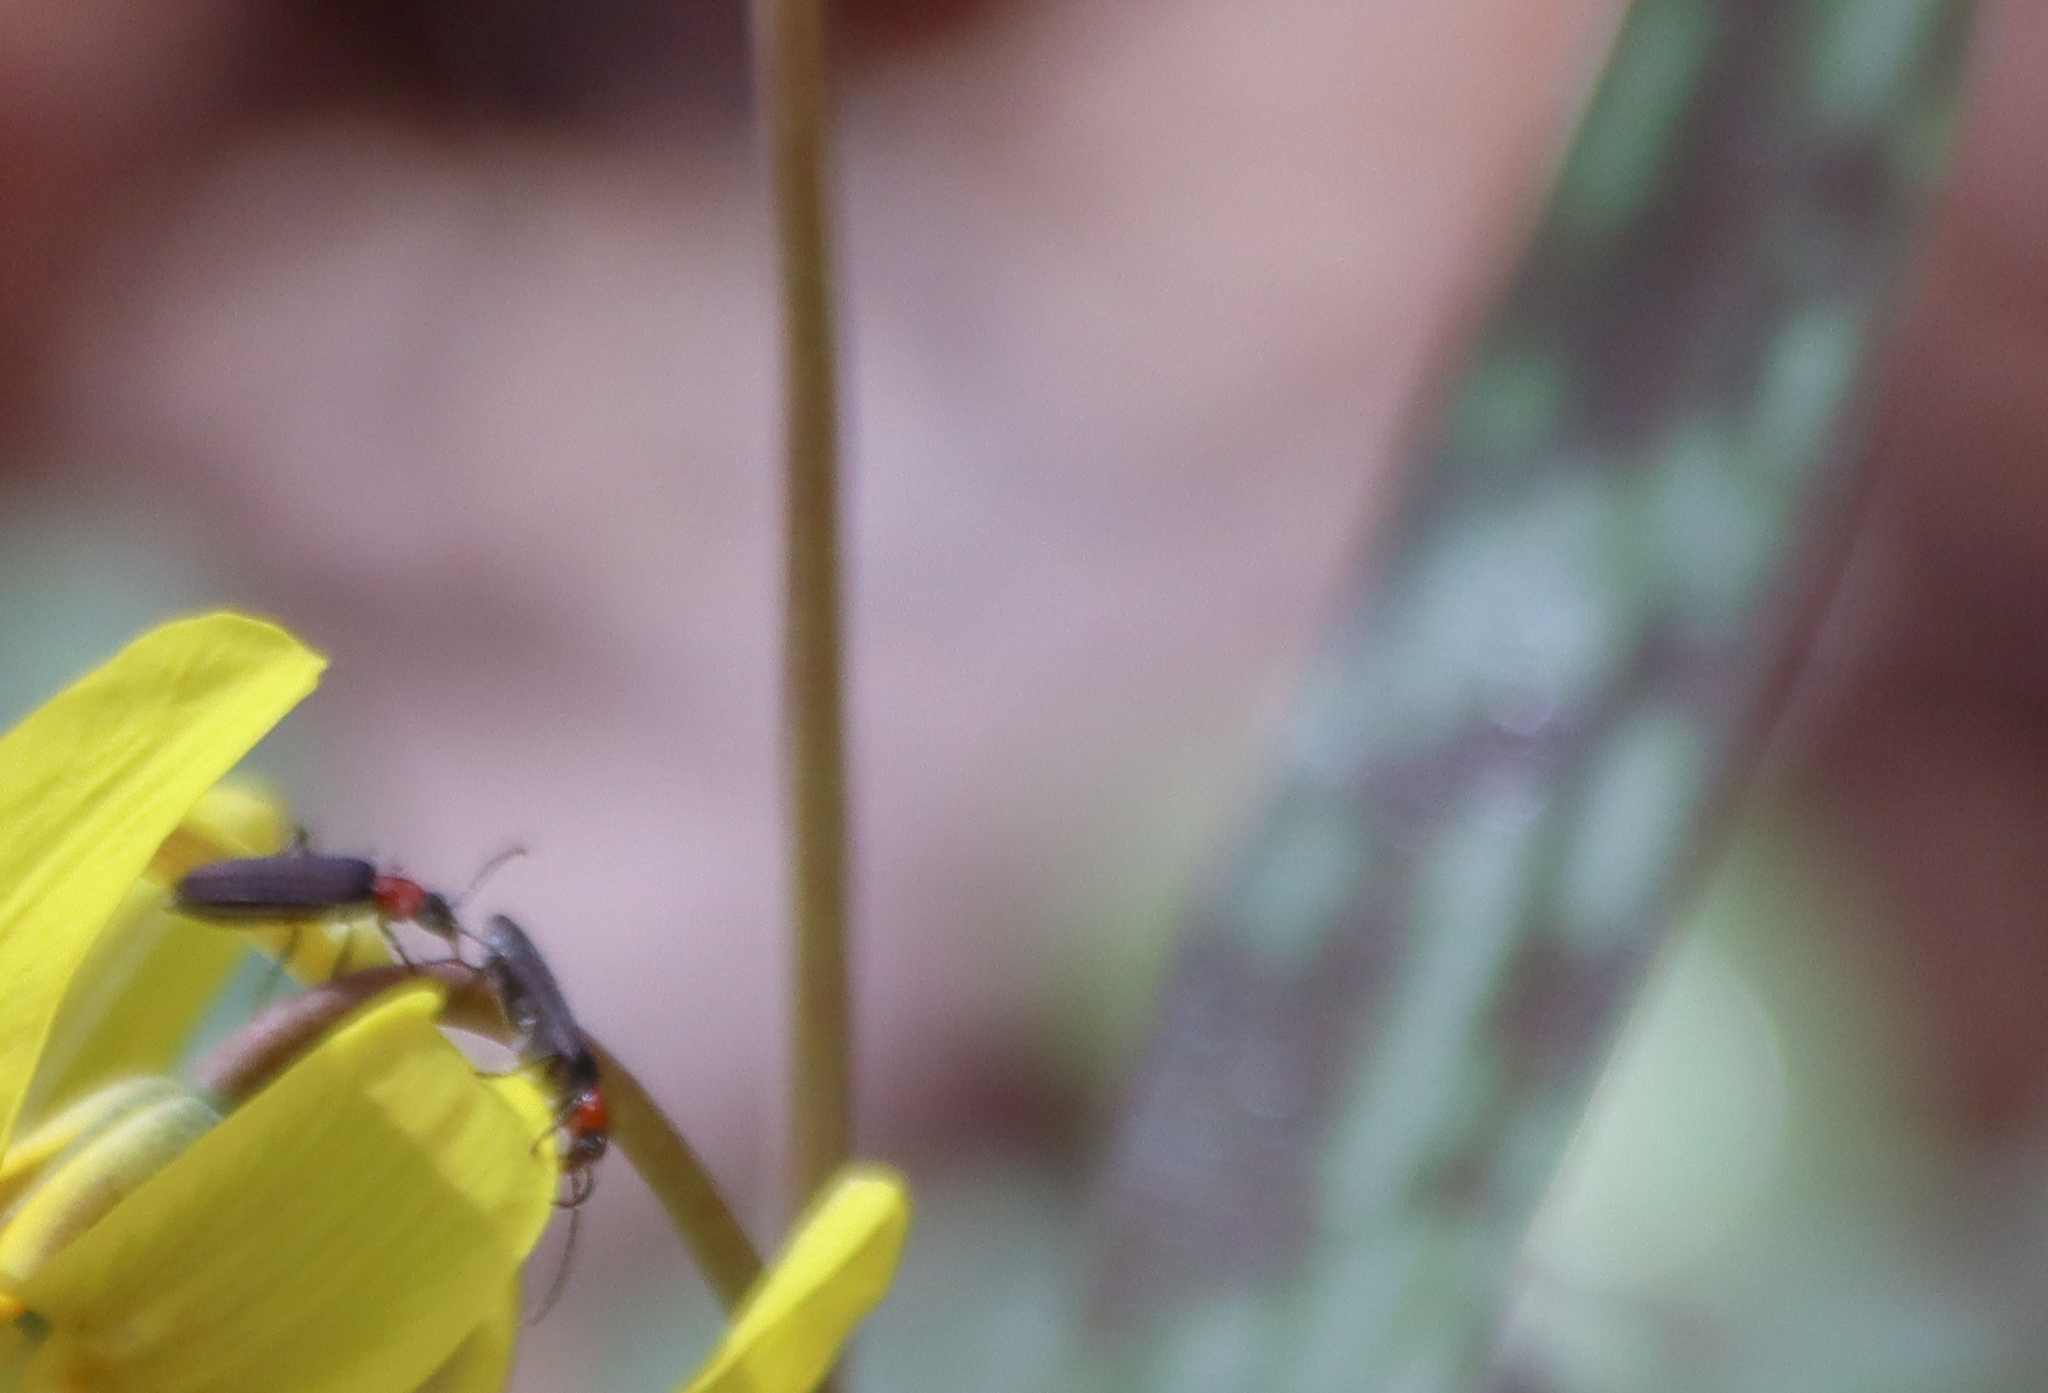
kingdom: Animalia
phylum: Arthropoda
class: Insecta
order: Coleoptera
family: Oedemeridae
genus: Ischnomera
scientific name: Ischnomera
